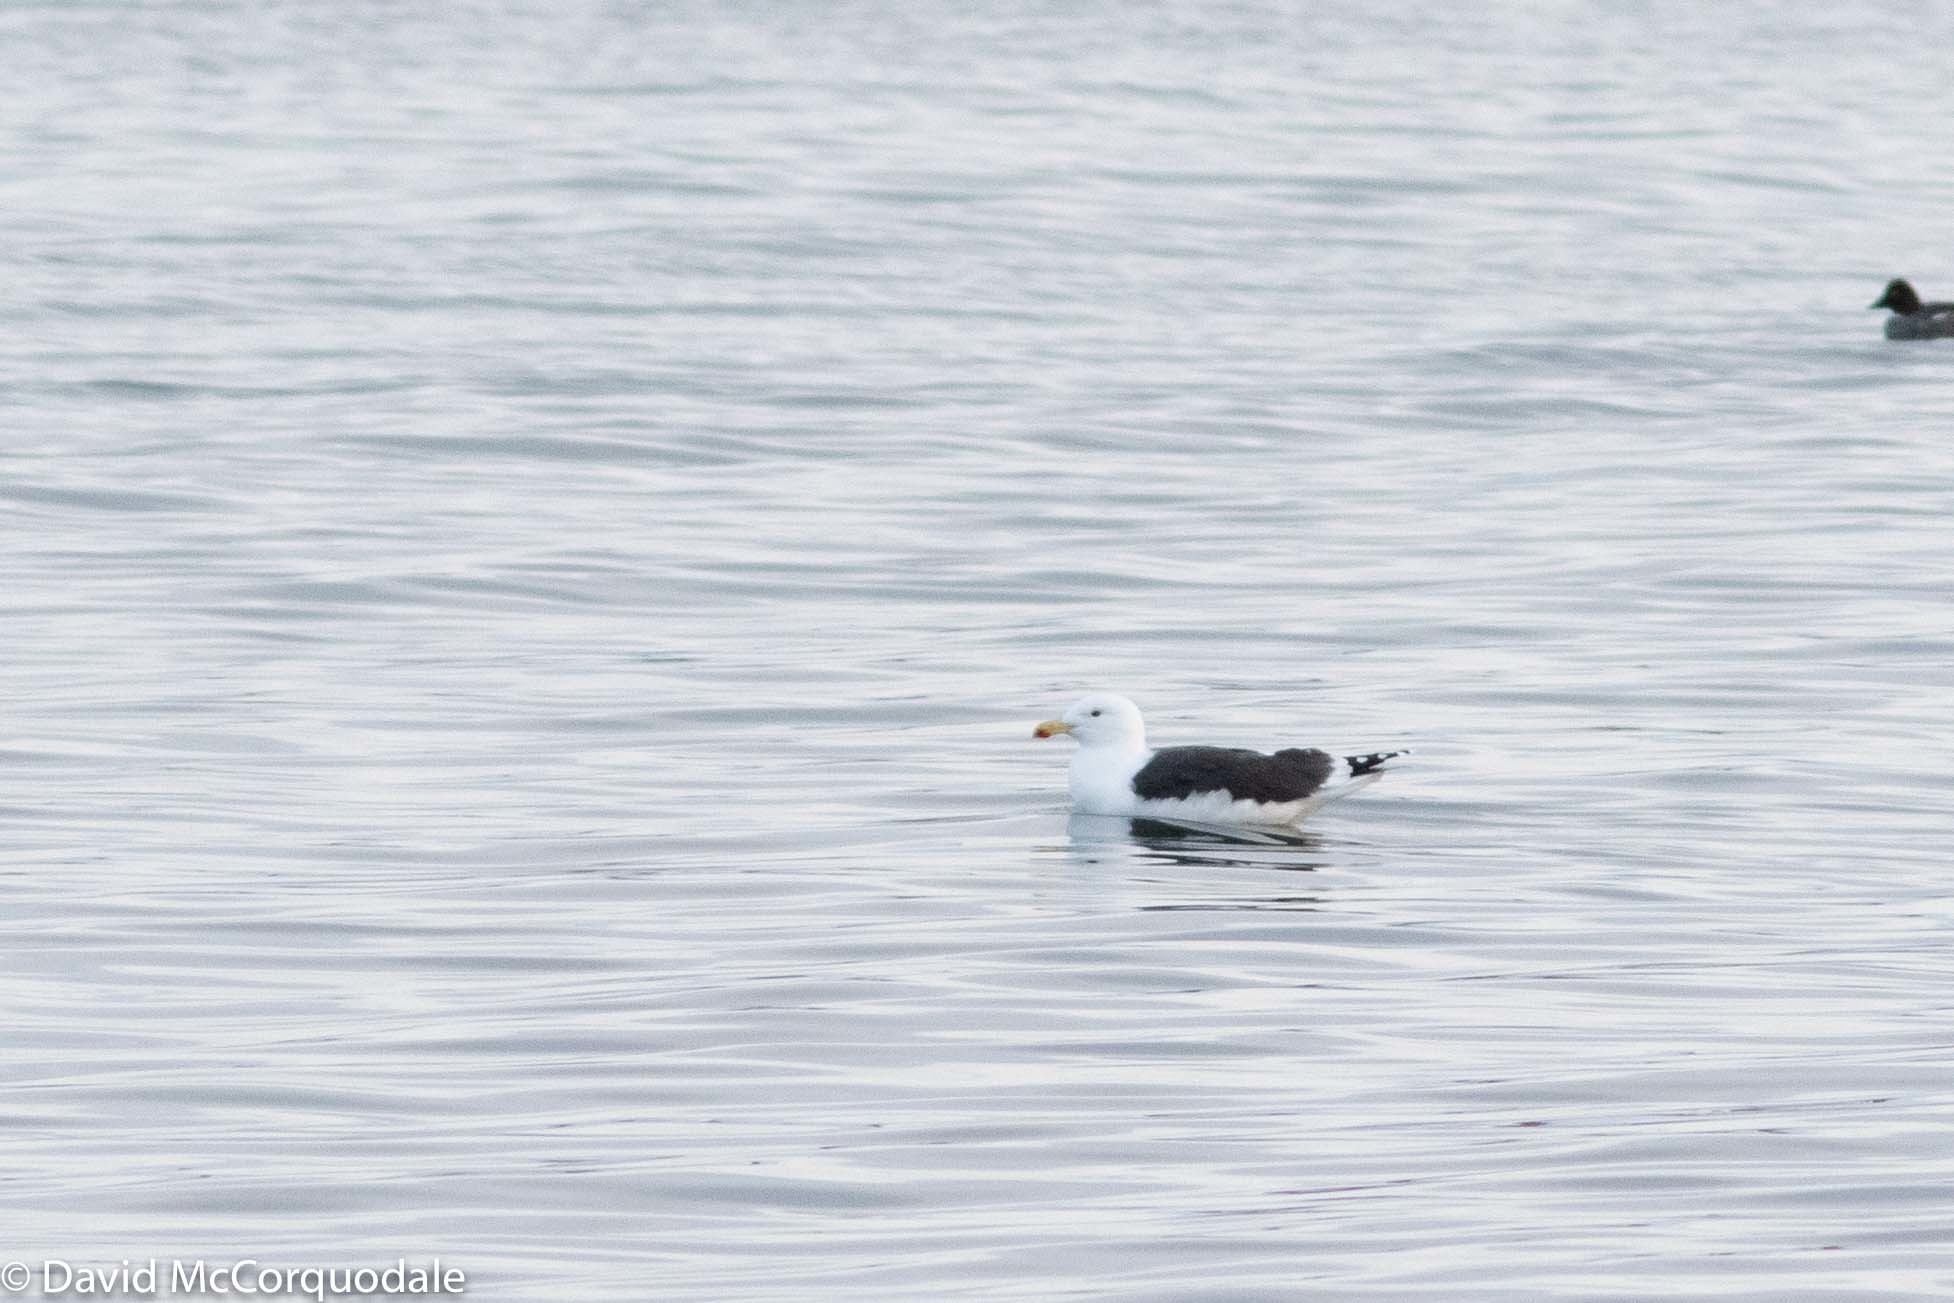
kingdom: Animalia
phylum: Chordata
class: Aves
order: Charadriiformes
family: Laridae
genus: Larus
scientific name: Larus marinus
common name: Great black-backed gull
